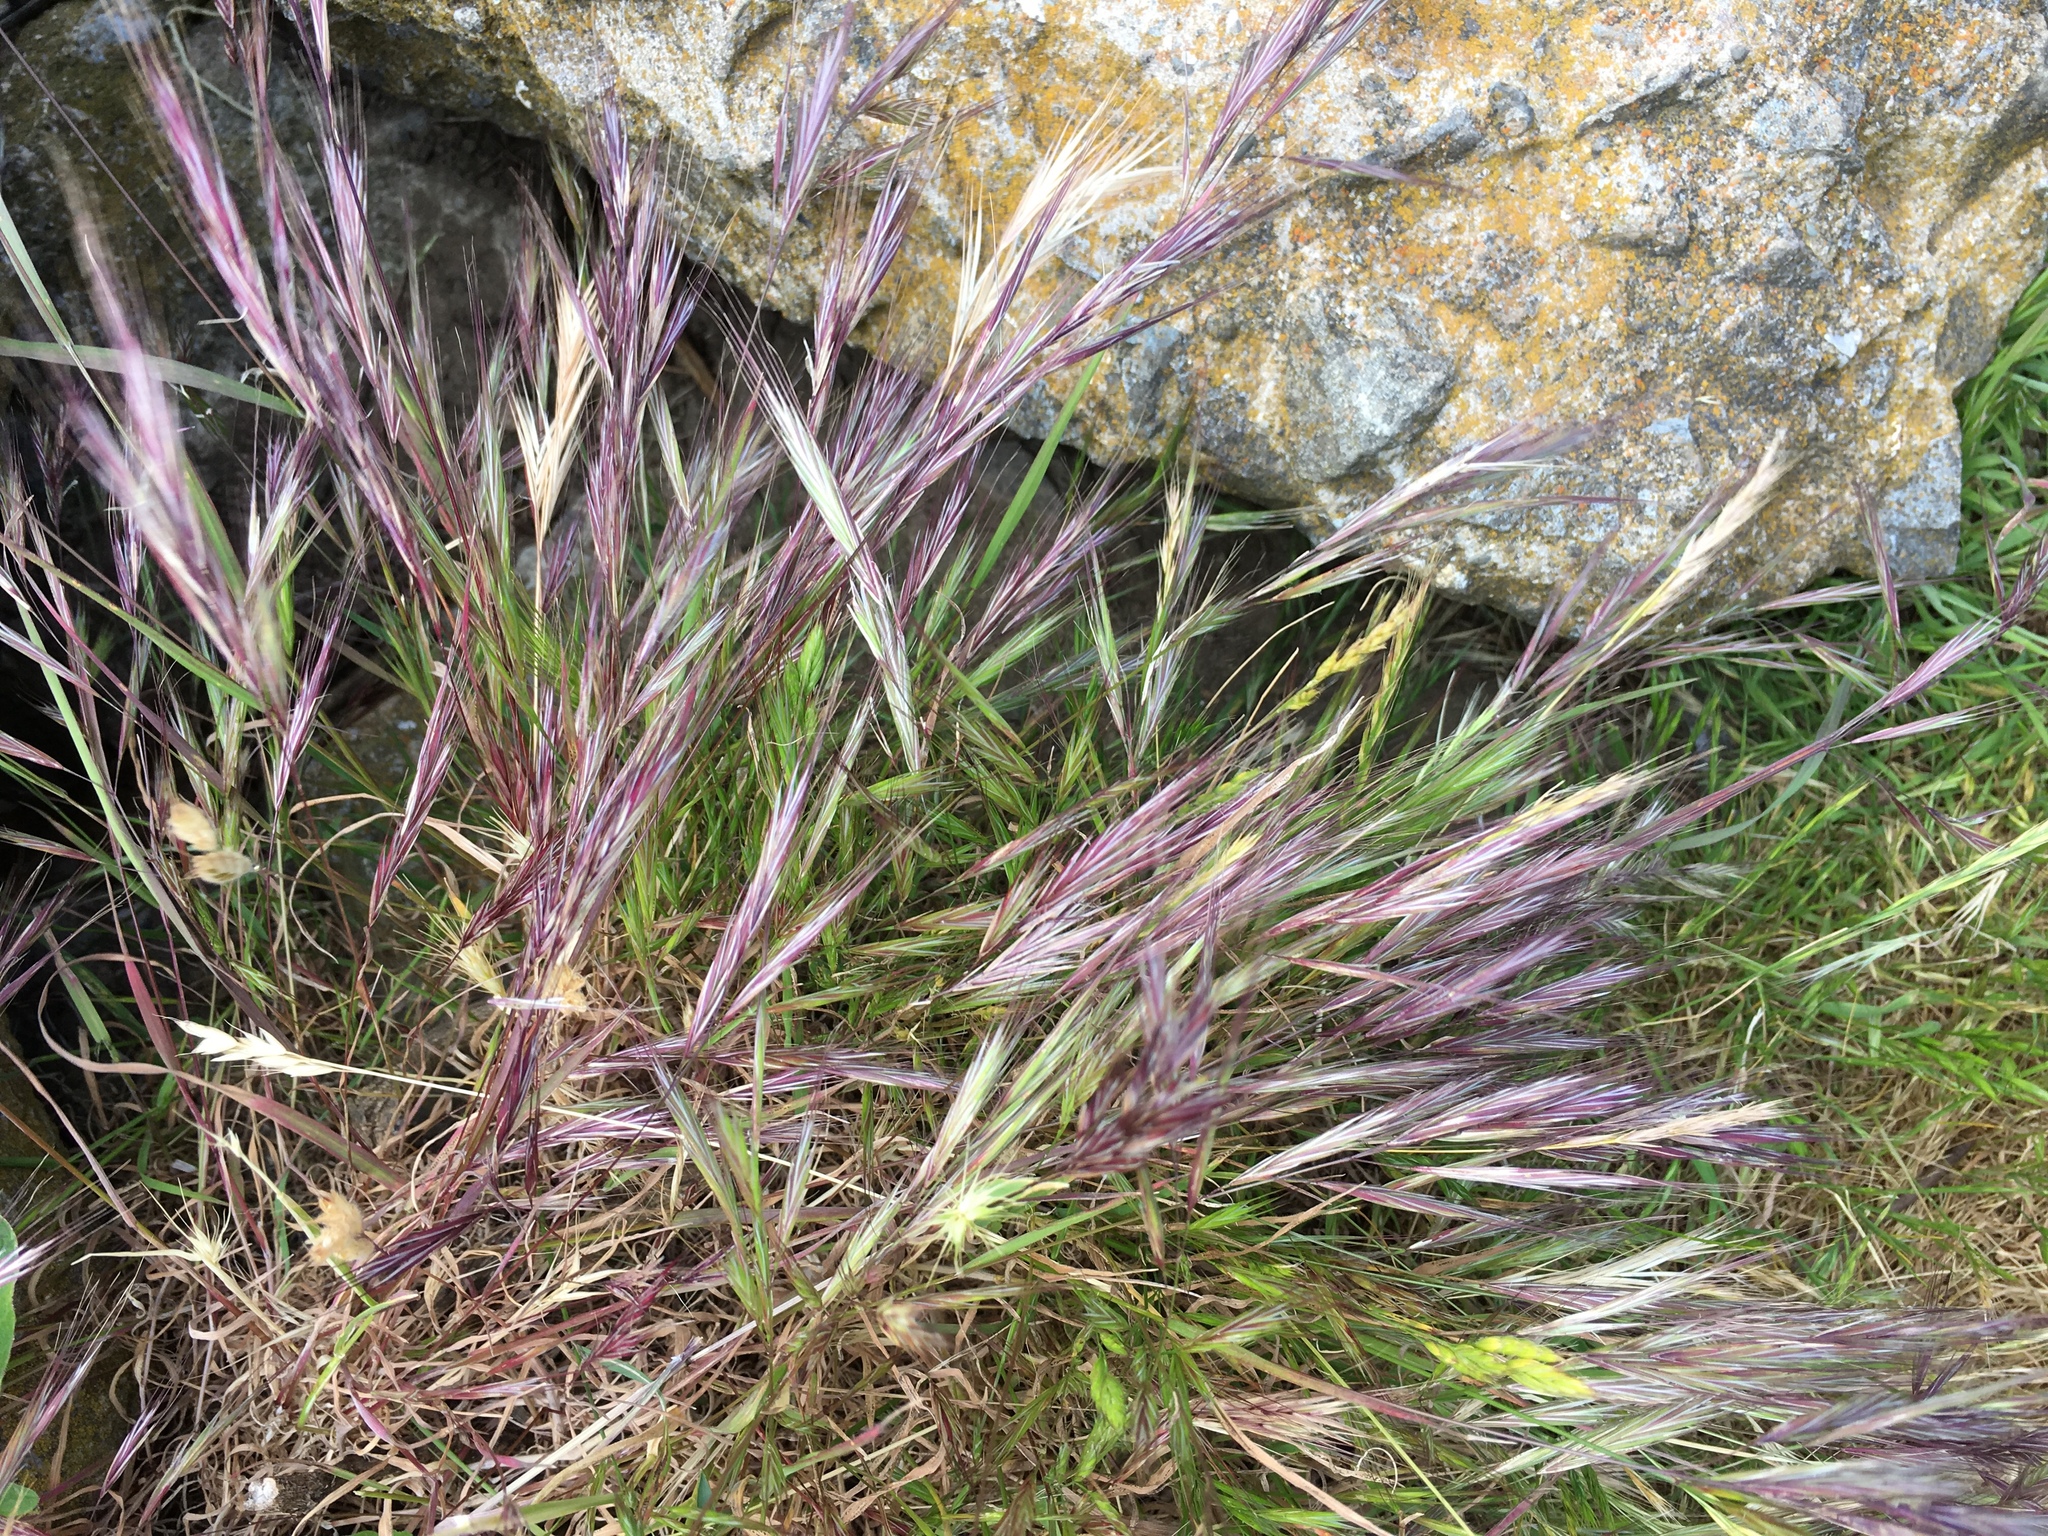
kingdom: Plantae
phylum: Tracheophyta
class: Liliopsida
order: Poales
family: Poaceae
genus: Bromus
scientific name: Bromus rubens
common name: Red brome
